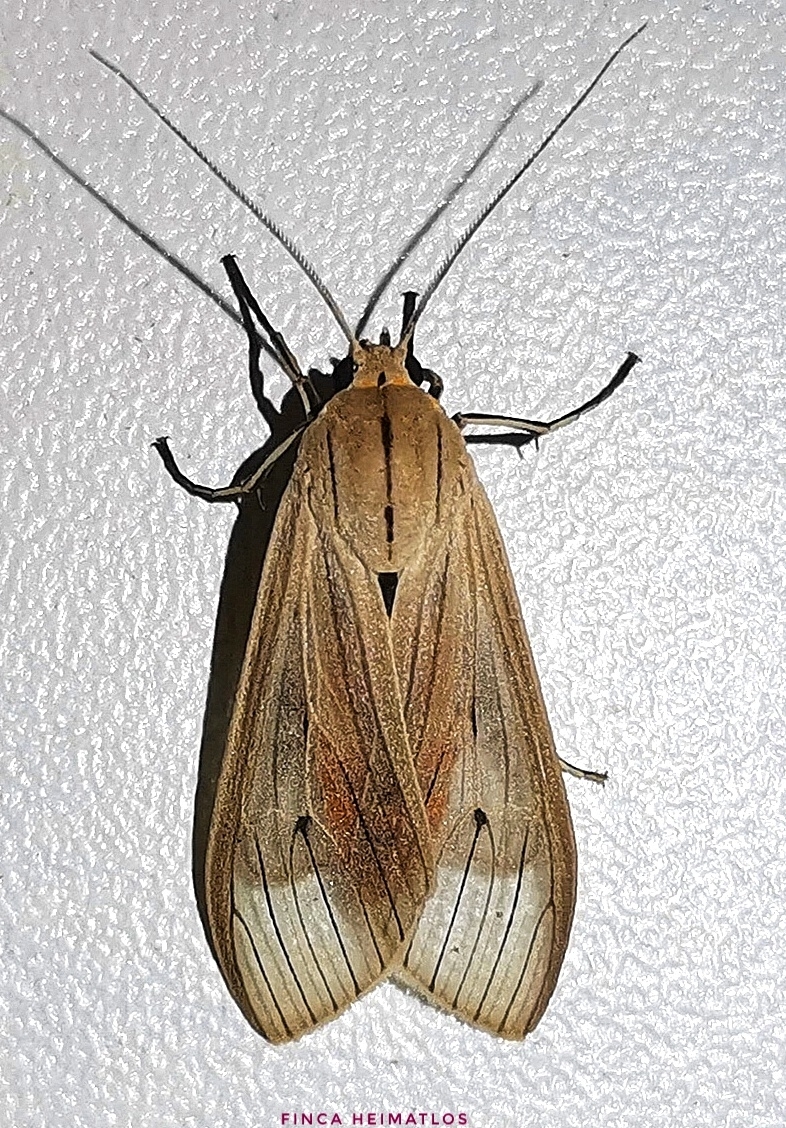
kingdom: Animalia
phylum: Arthropoda
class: Insecta
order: Lepidoptera
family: Erebidae
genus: Arctagyrta
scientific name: Arctagyrta Agaraea semivitrea
